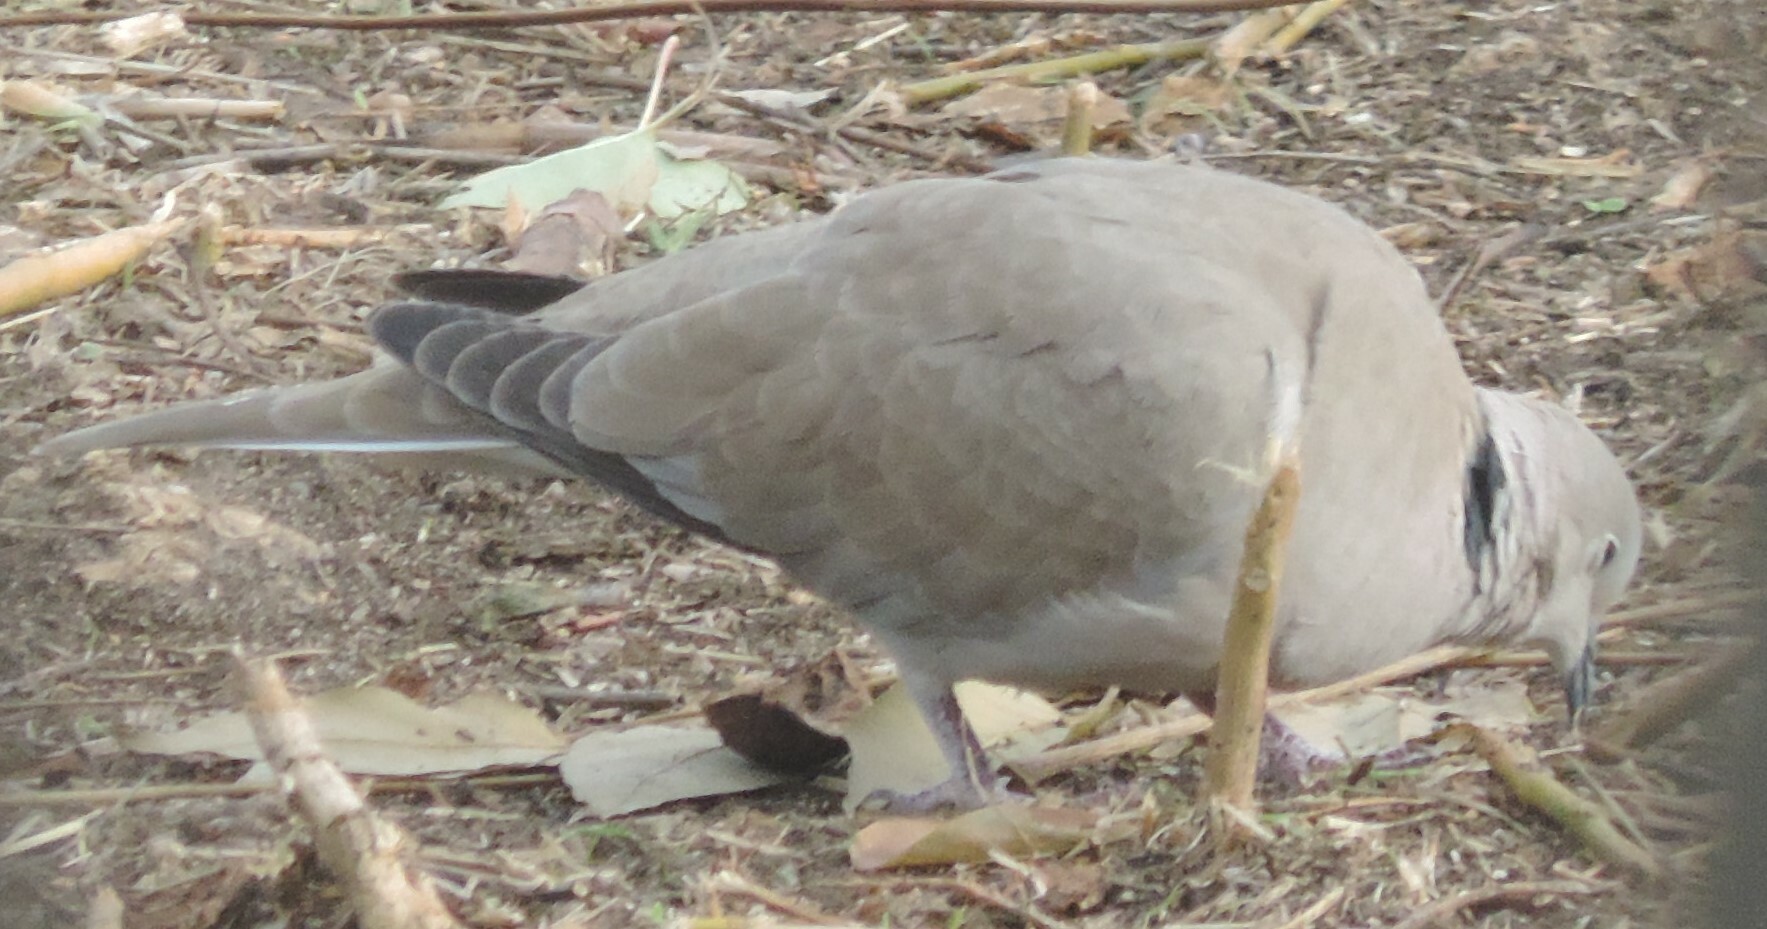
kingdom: Animalia
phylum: Chordata
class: Aves
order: Columbiformes
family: Columbidae
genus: Streptopelia
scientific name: Streptopelia decaocto
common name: Eurasian collared dove
